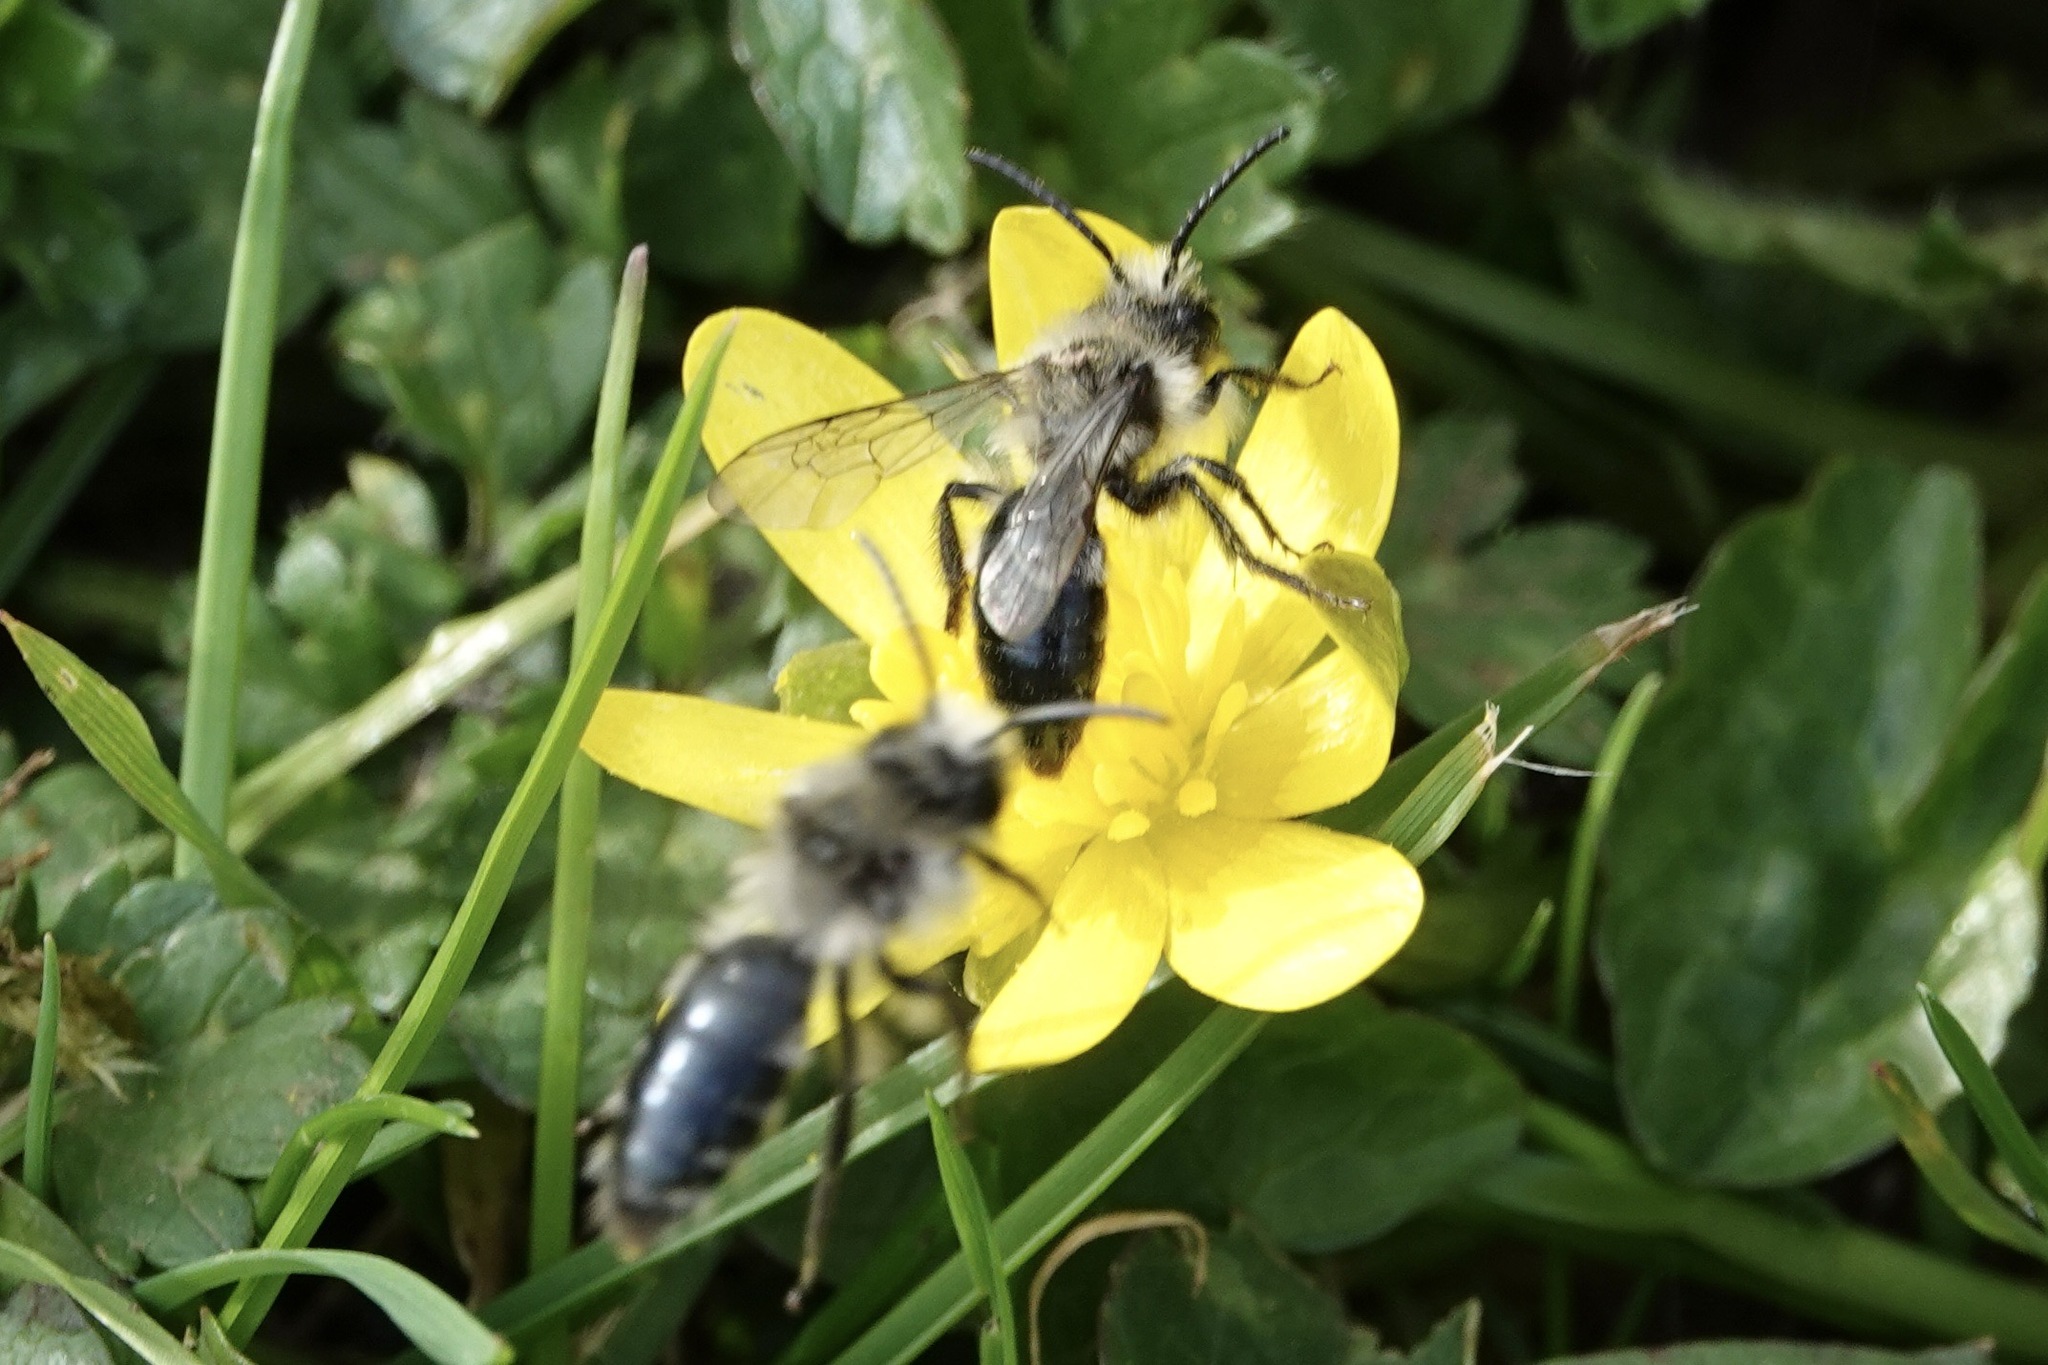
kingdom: Animalia
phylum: Arthropoda
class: Insecta
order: Hymenoptera
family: Andrenidae
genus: Andrena
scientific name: Andrena cineraria
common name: Ashy mining bee
